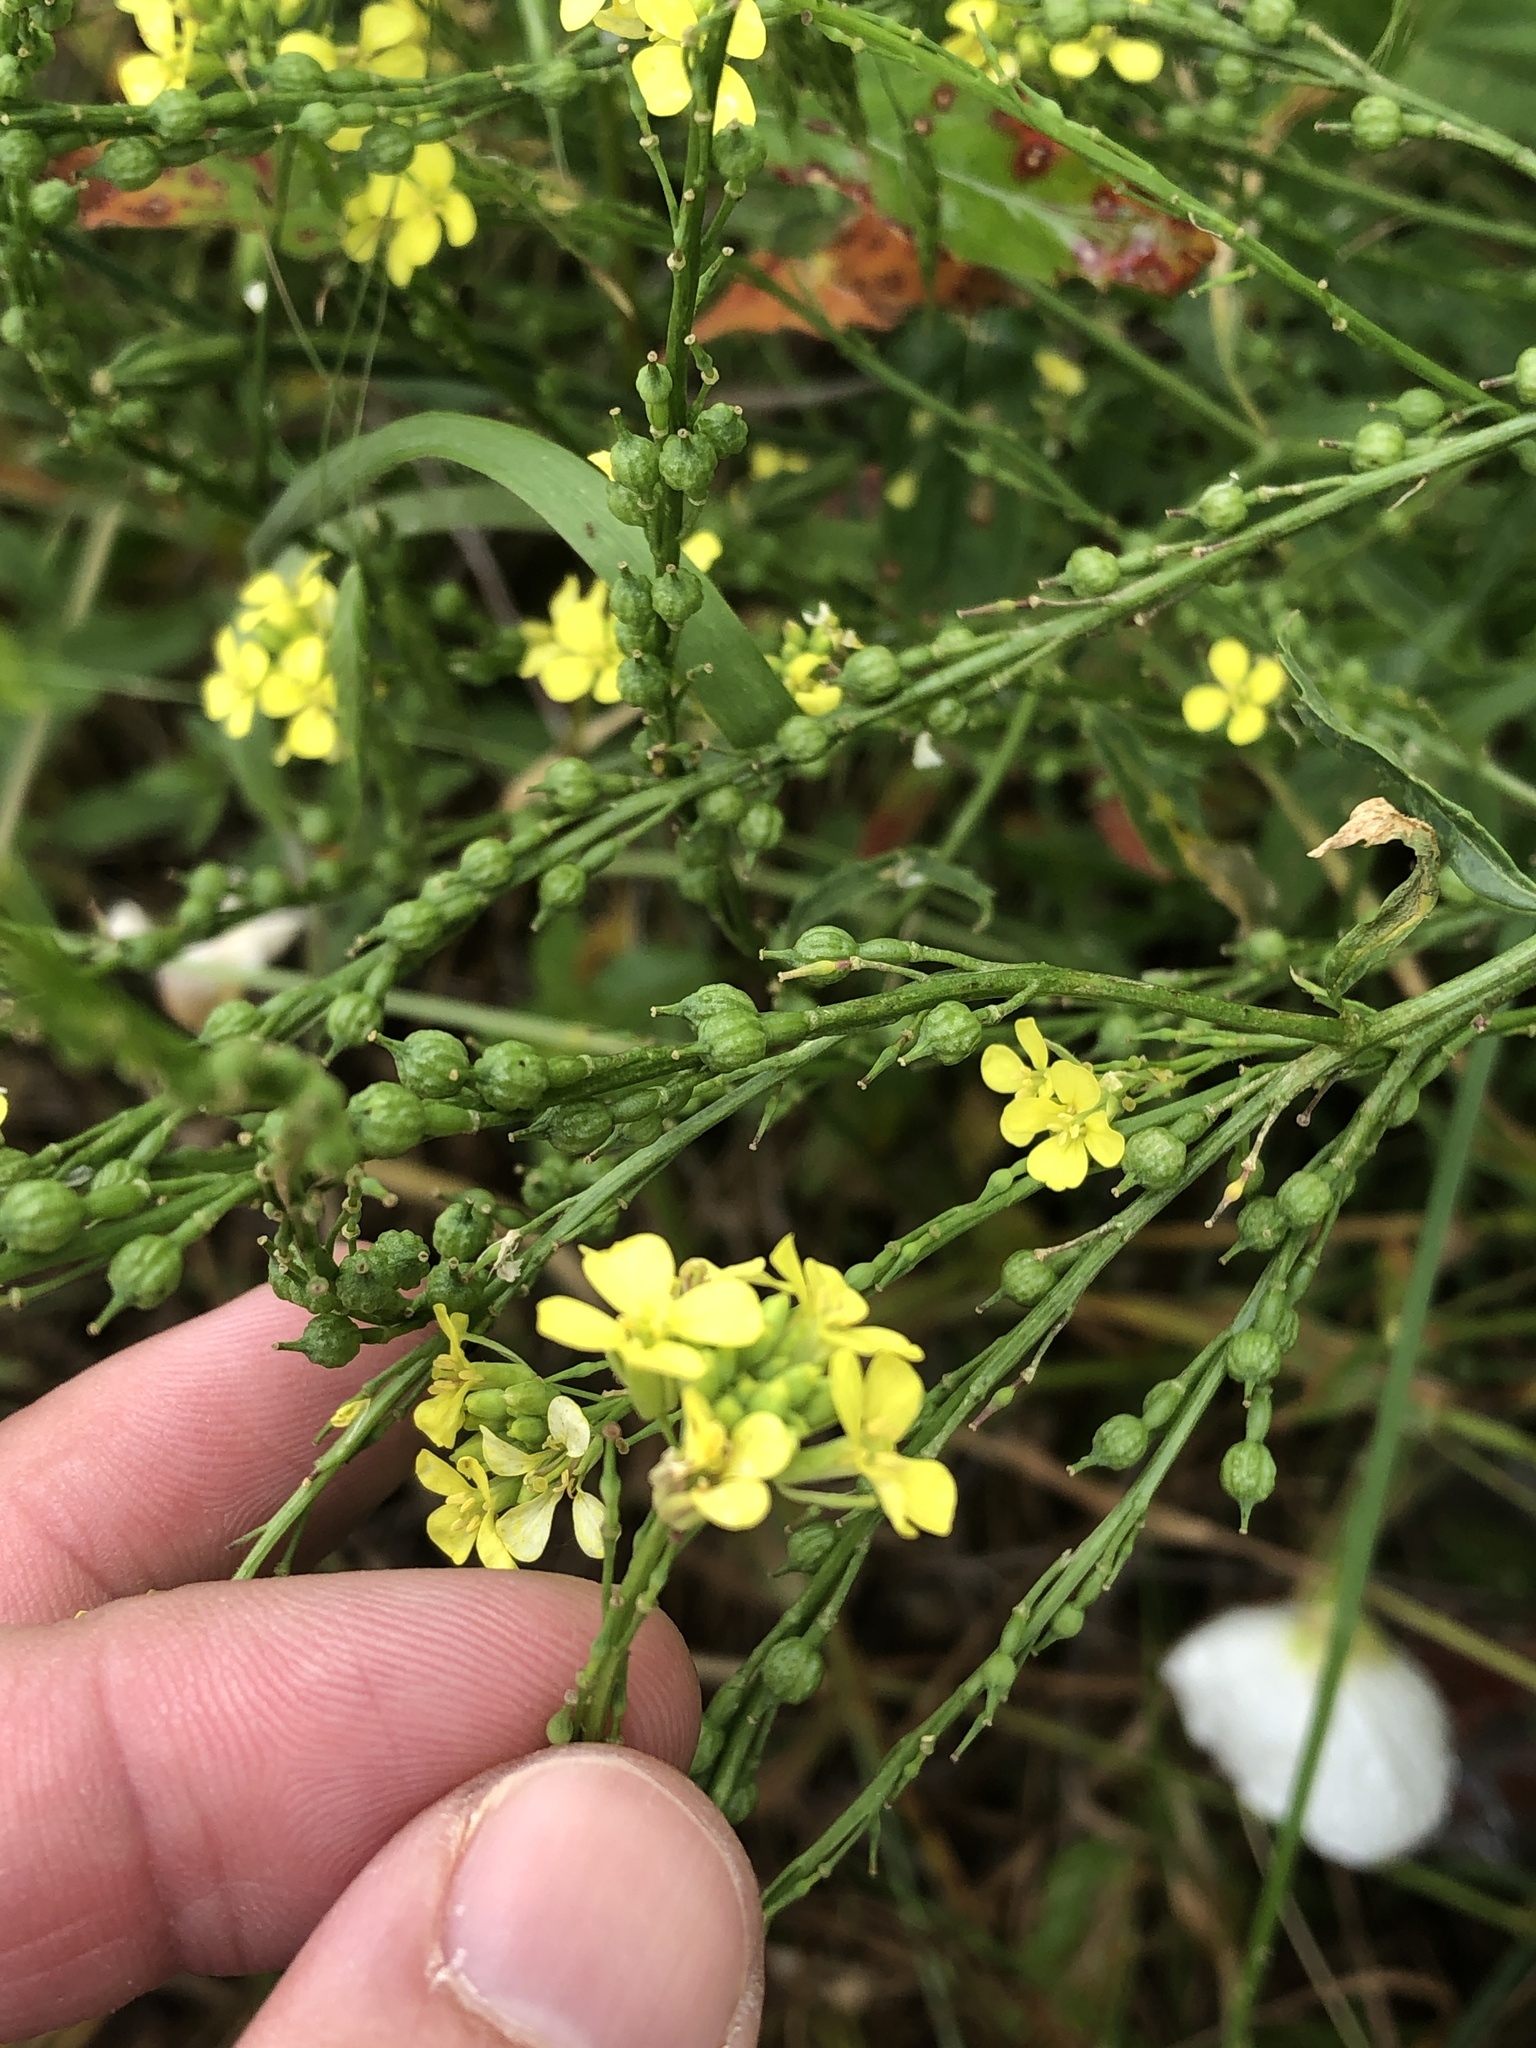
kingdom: Plantae
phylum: Tracheophyta
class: Magnoliopsida
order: Brassicales
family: Brassicaceae
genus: Rapistrum
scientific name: Rapistrum rugosum
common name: Annual bastardcabbage
